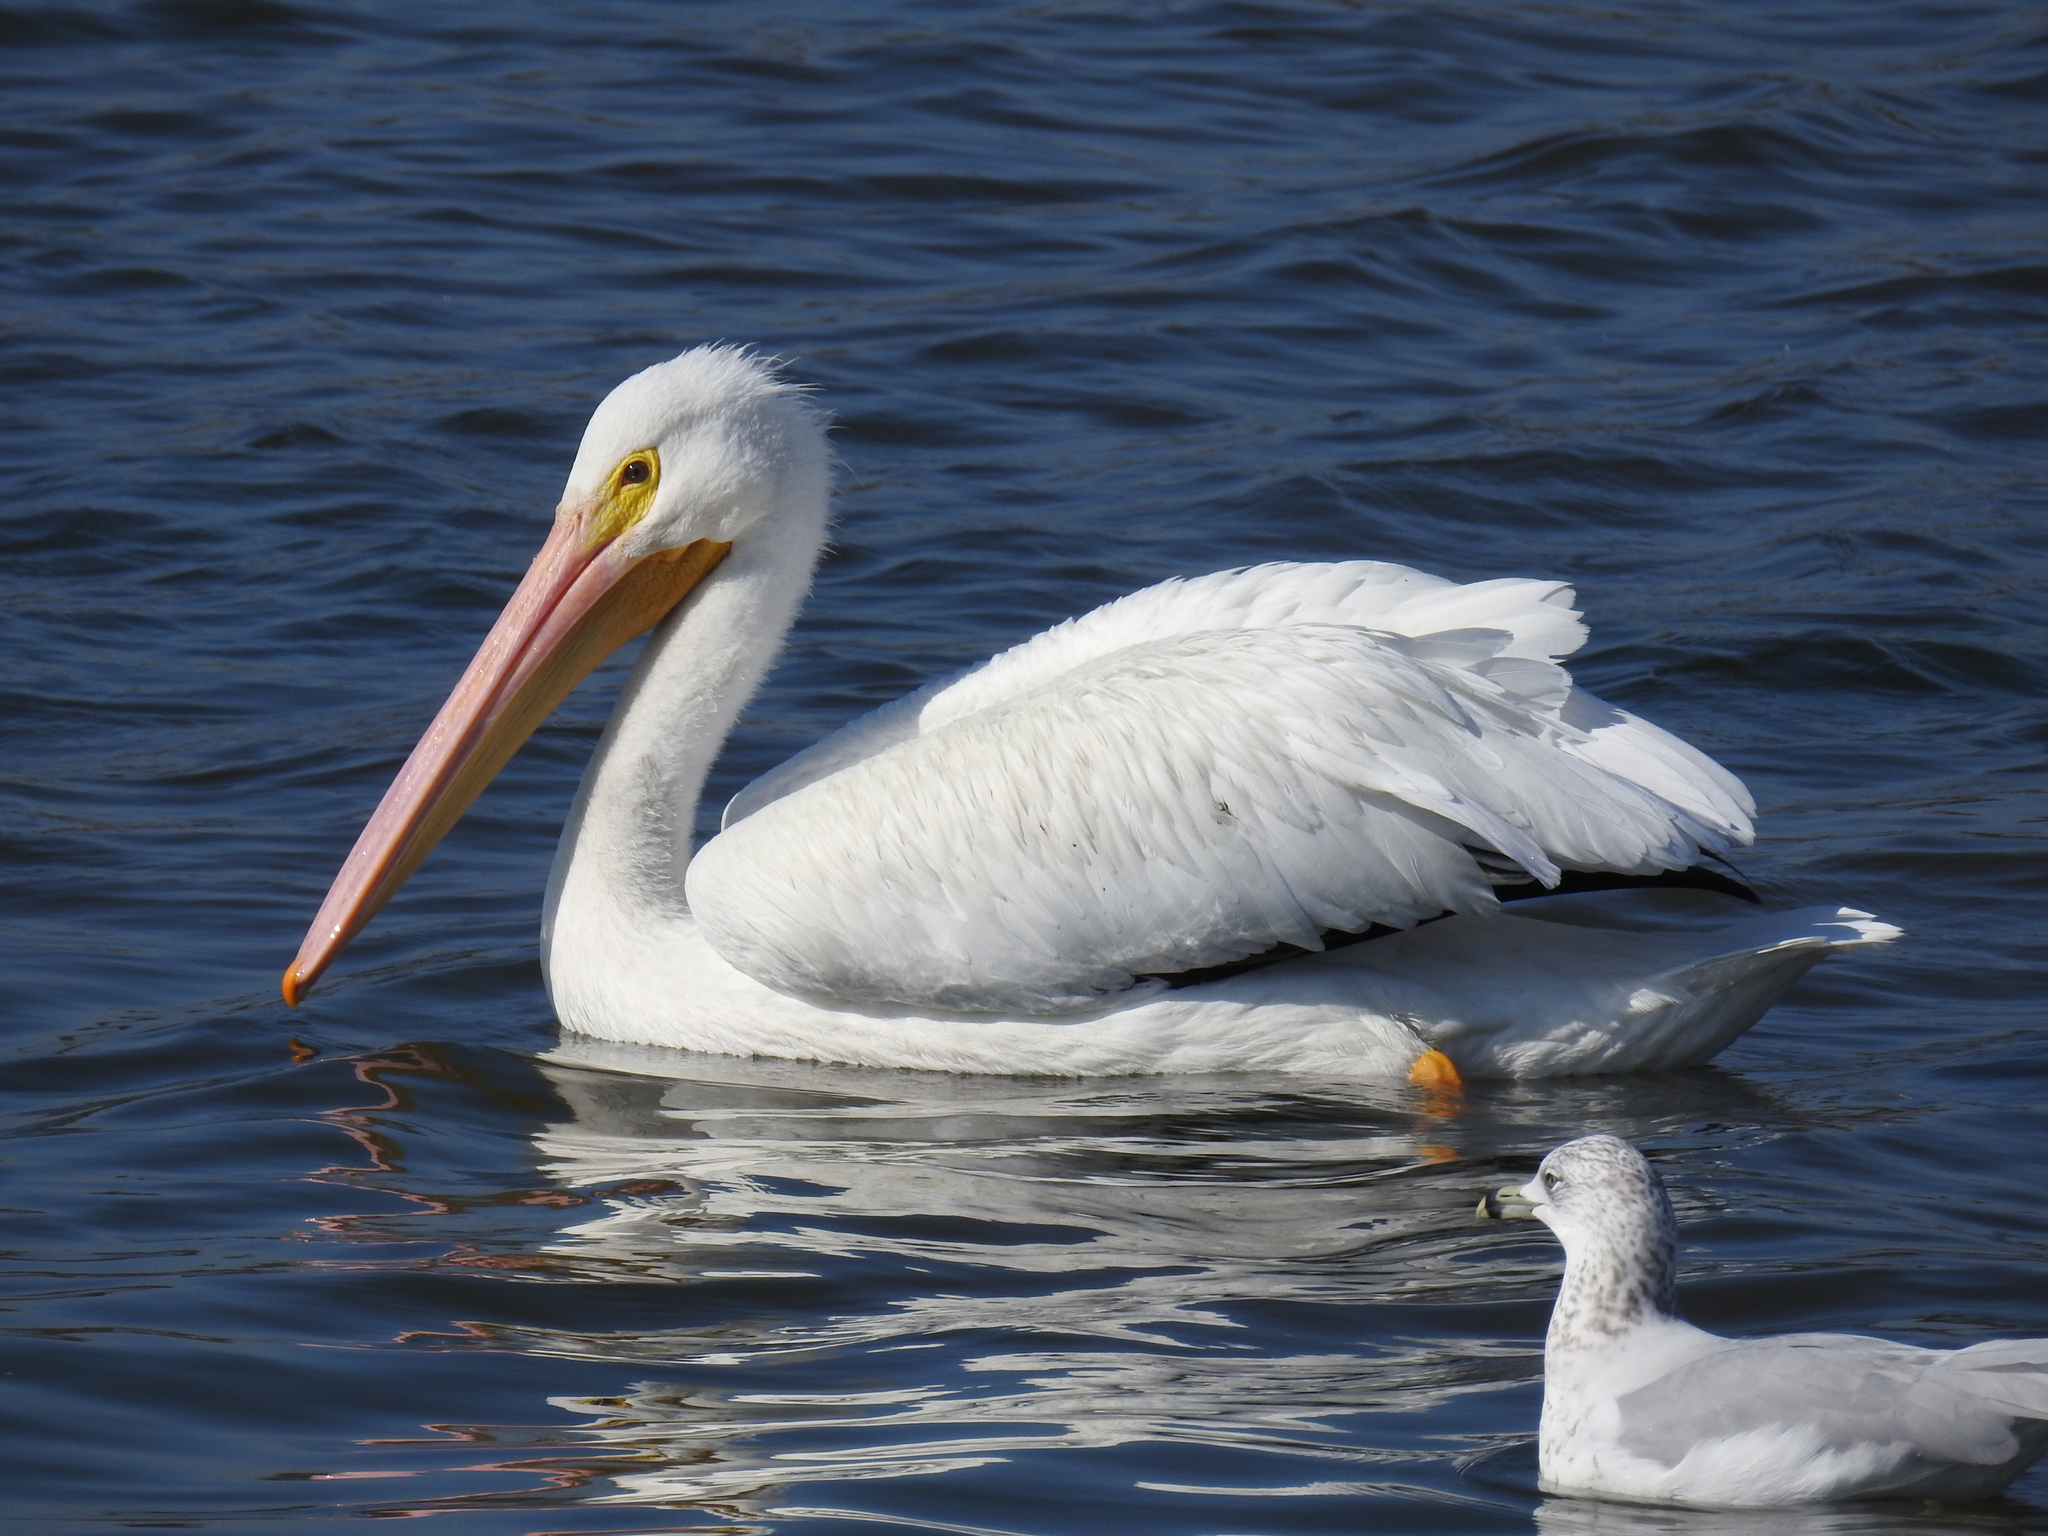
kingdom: Animalia
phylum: Chordata
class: Aves
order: Pelecaniformes
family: Pelecanidae
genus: Pelecanus
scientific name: Pelecanus erythrorhynchos
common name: American white pelican
